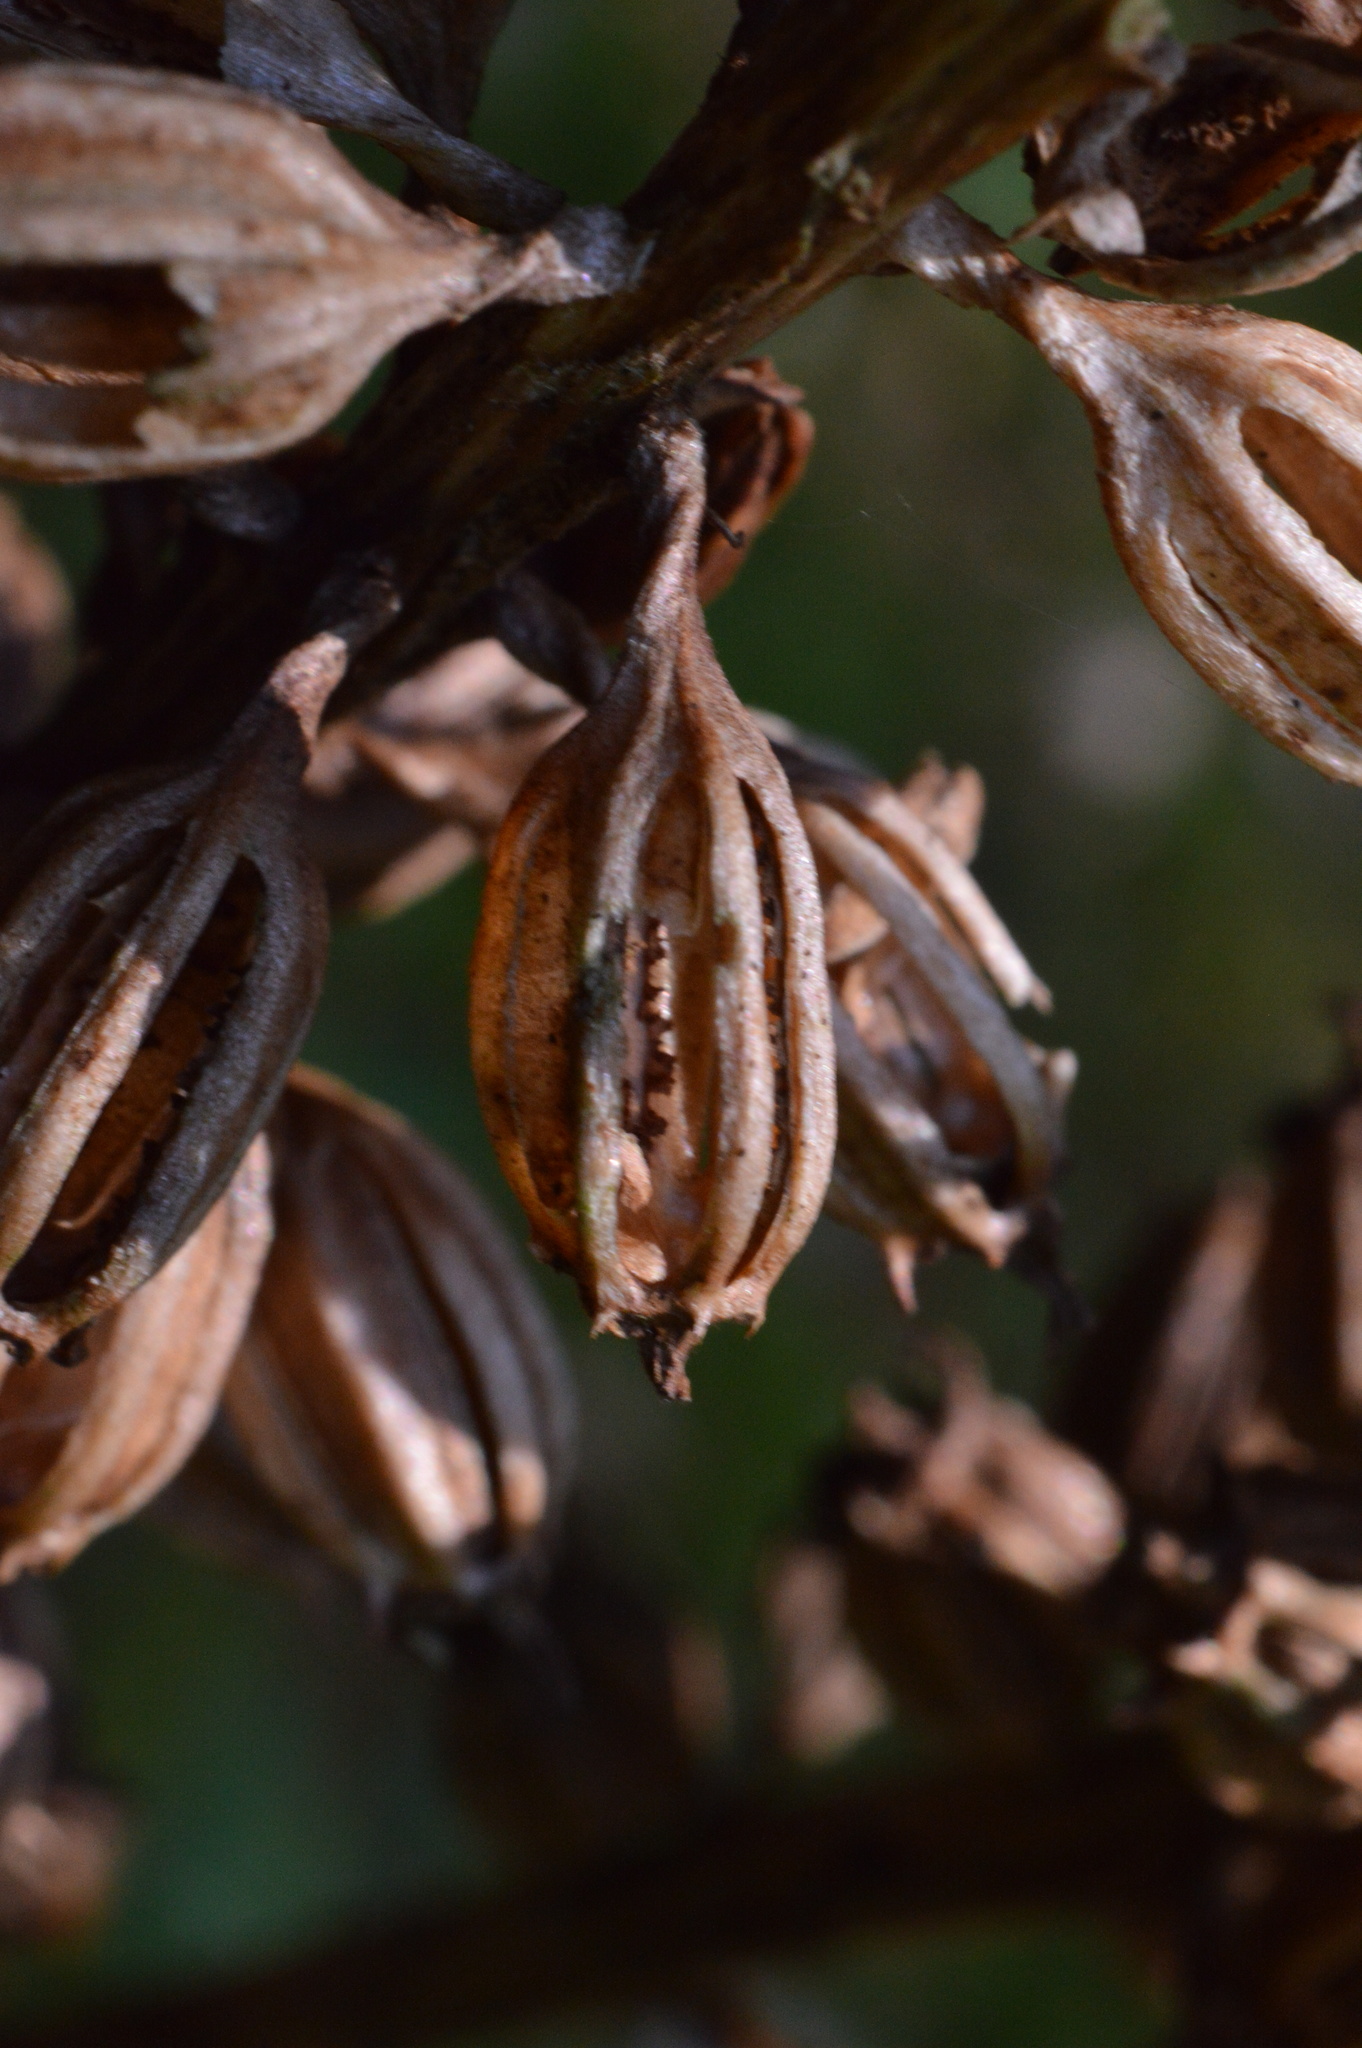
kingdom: Plantae
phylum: Tracheophyta
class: Liliopsida
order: Asparagales
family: Orchidaceae
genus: Neottia
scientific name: Neottia nidus-avis
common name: Bird's-nest orchid
